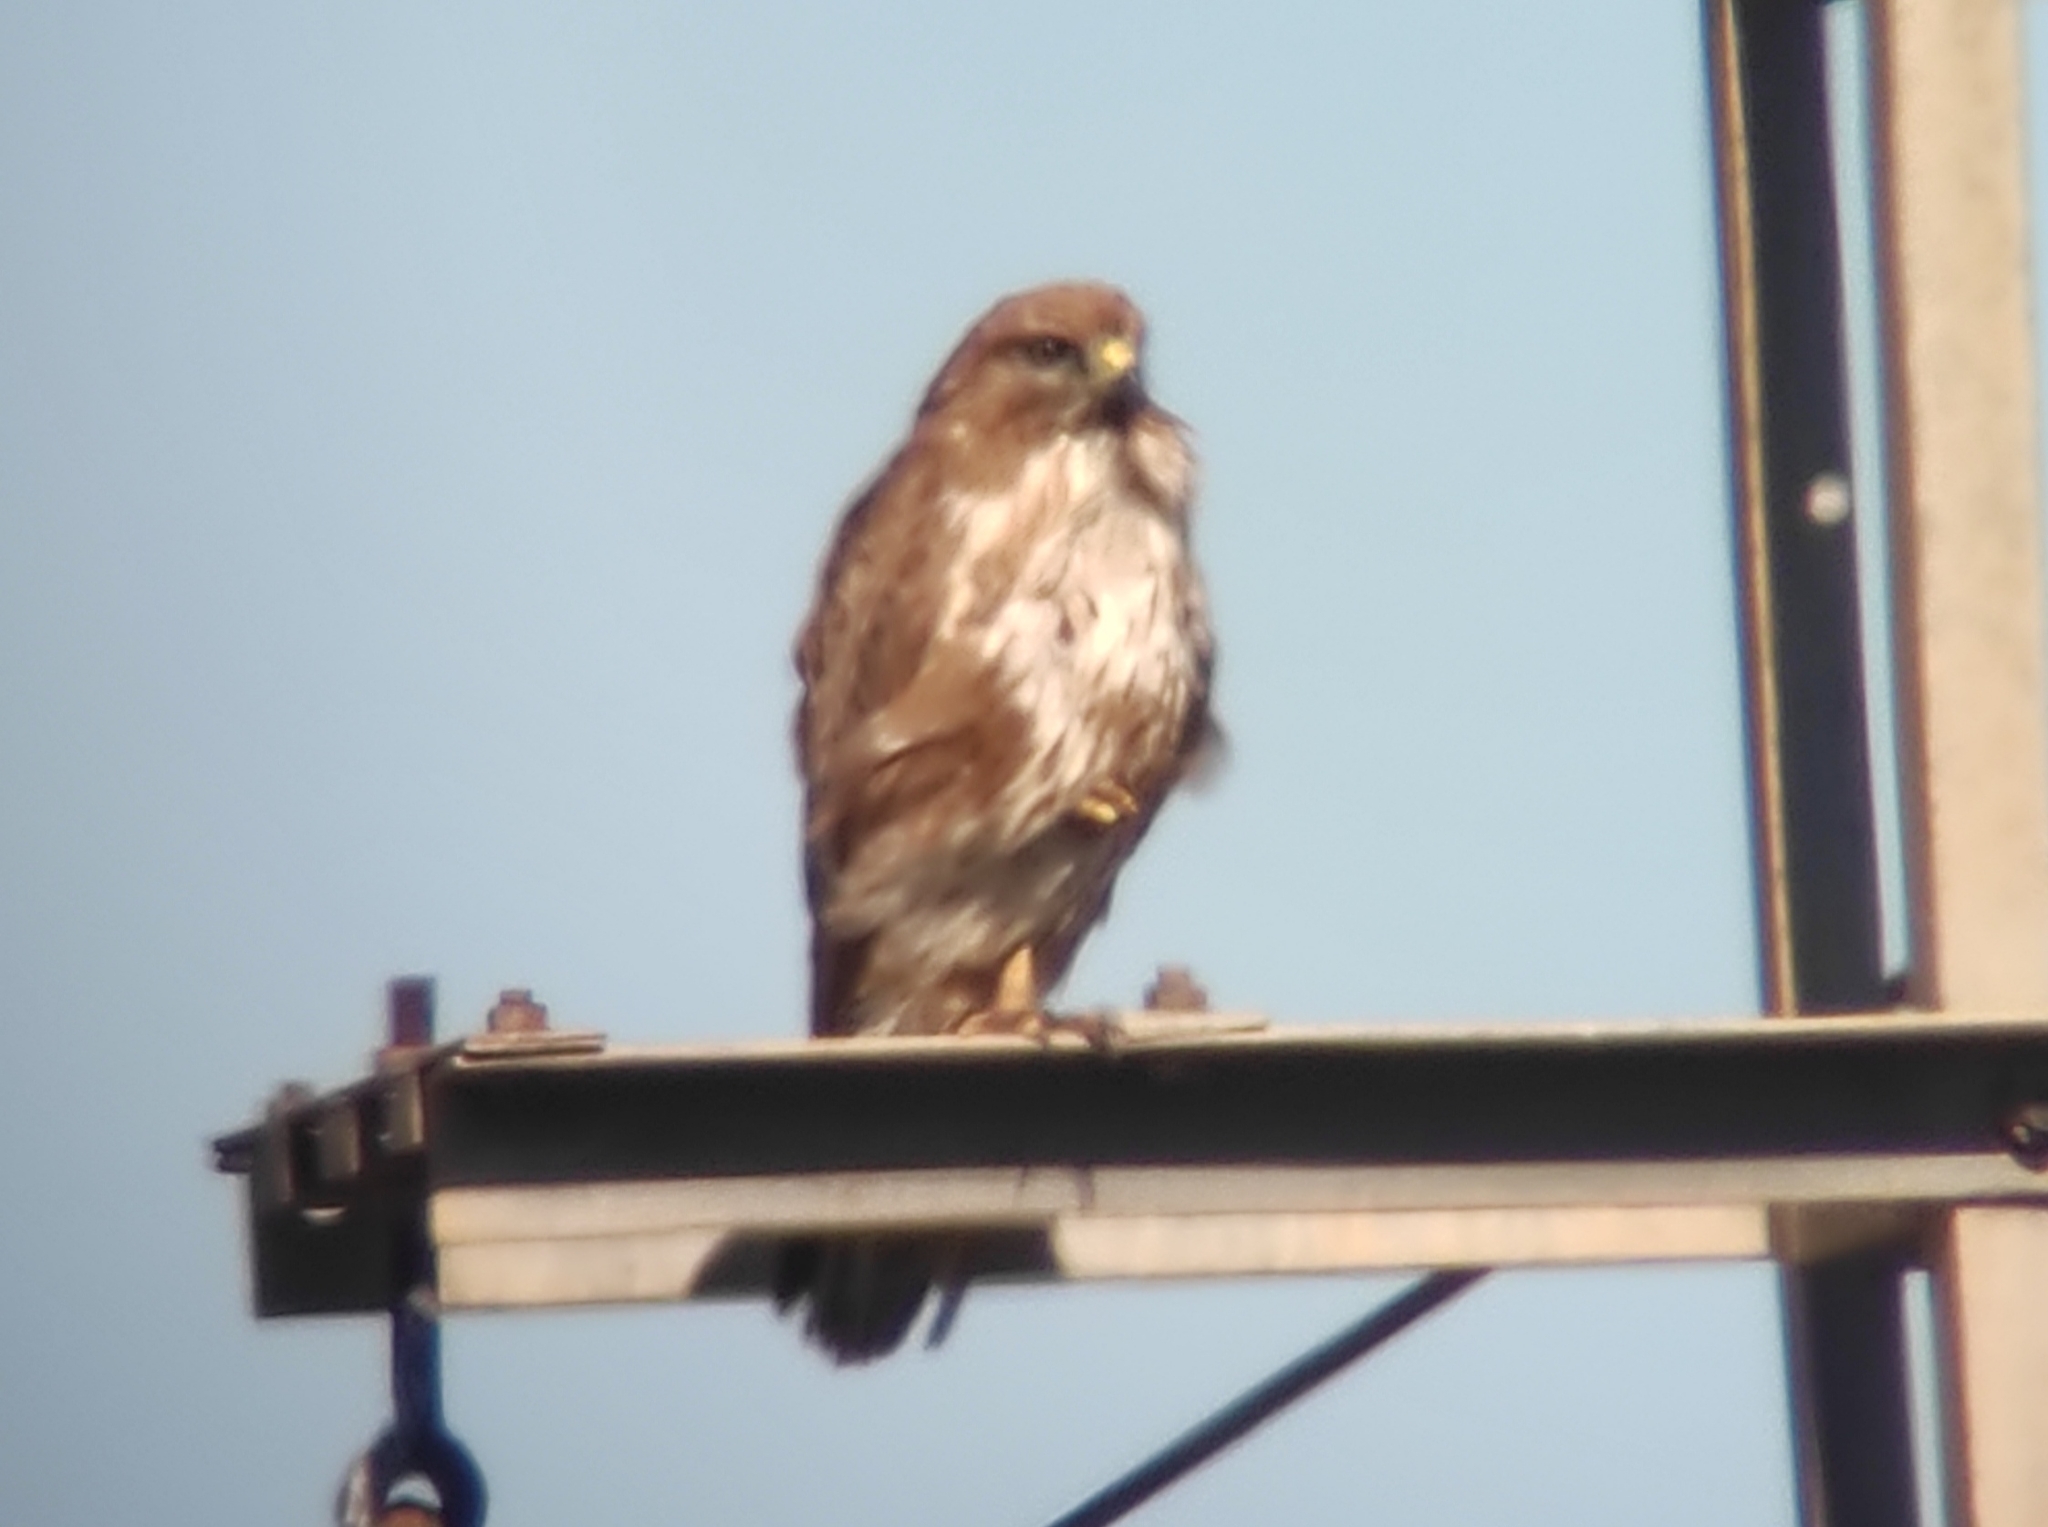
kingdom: Animalia
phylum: Chordata
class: Aves
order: Accipitriformes
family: Accipitridae
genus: Buteo
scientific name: Buteo buteo
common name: Common buzzard
